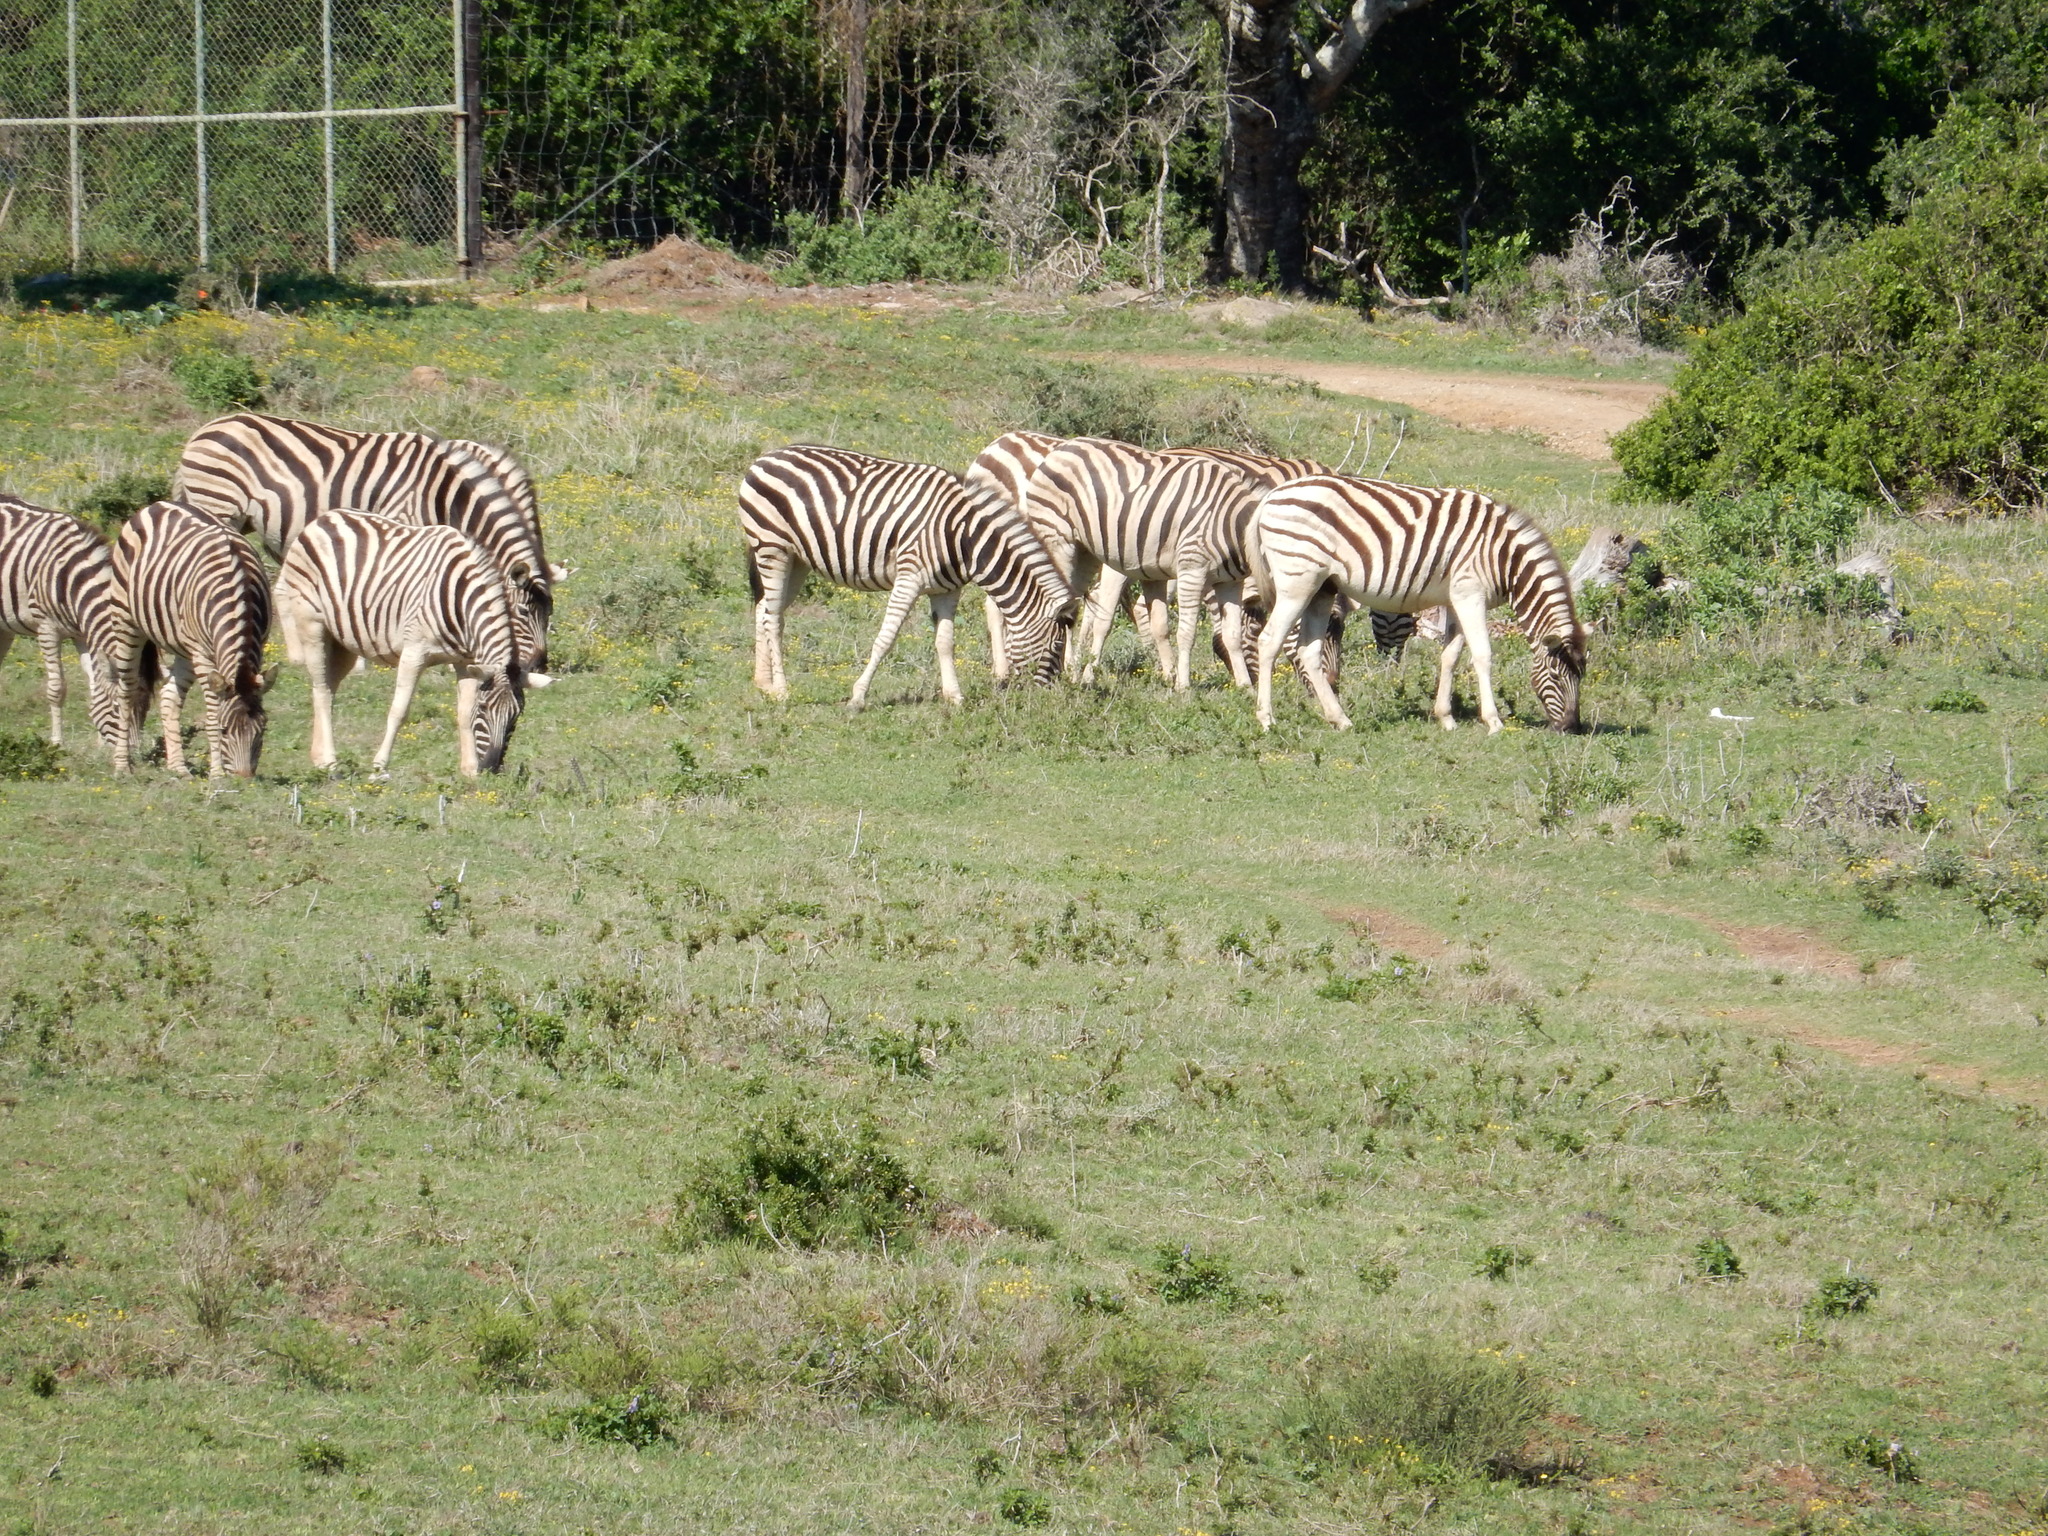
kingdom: Animalia
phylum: Chordata
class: Mammalia
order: Perissodactyla
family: Equidae
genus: Equus
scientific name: Equus quagga
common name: Plains zebra
